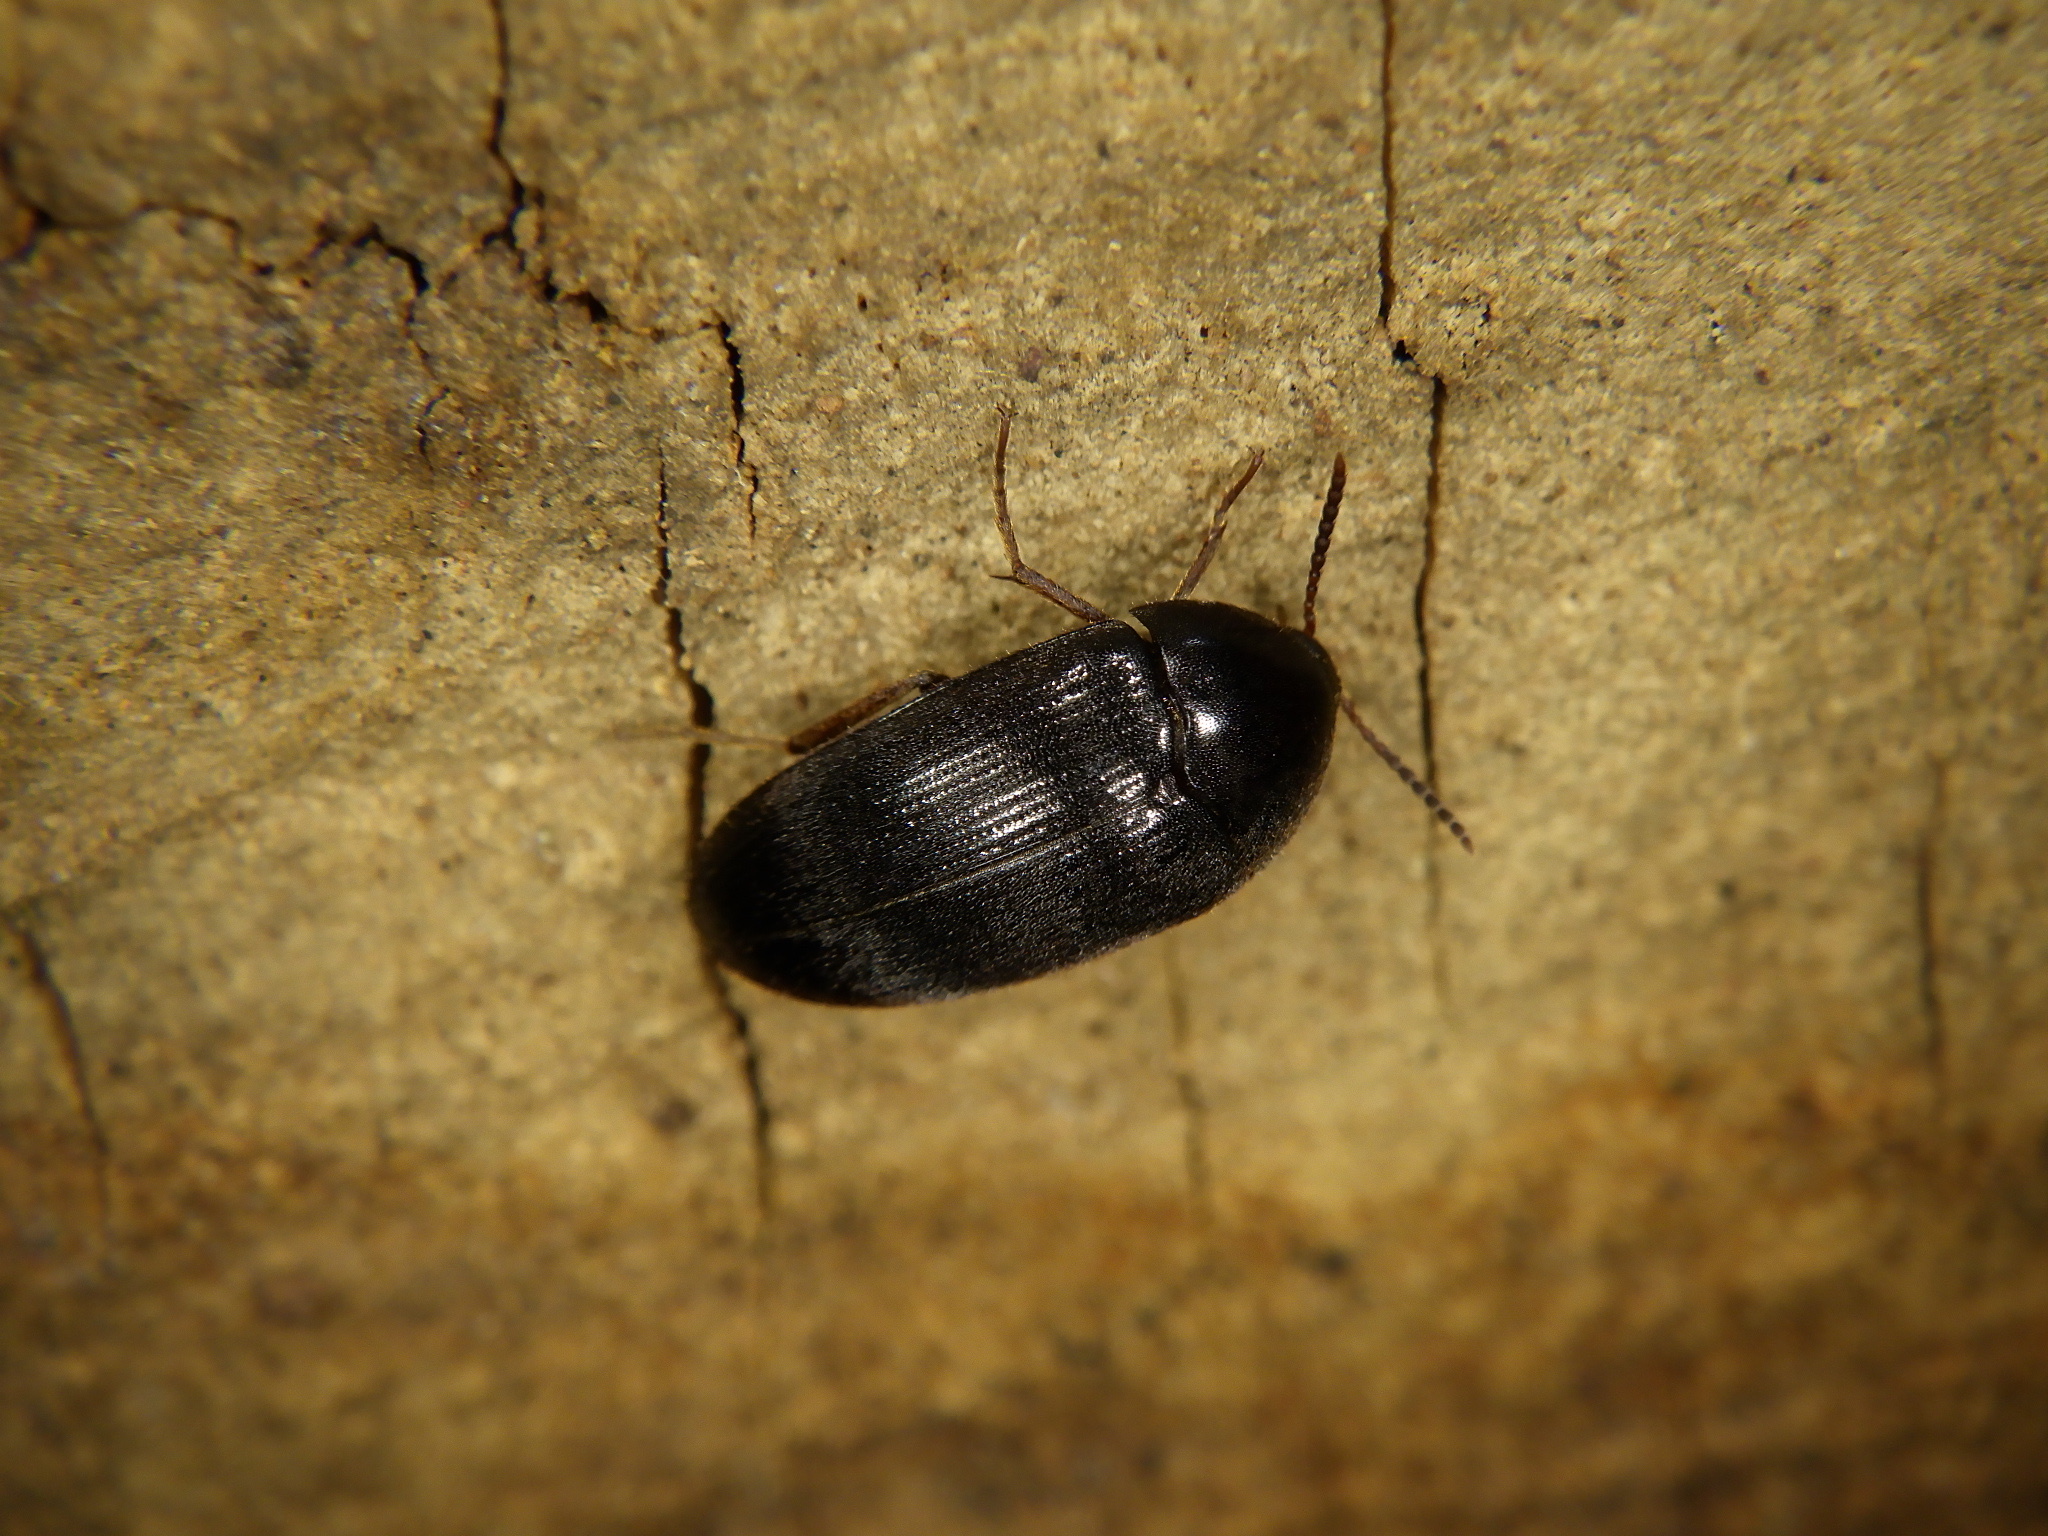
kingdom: Animalia
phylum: Arthropoda
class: Insecta
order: Coleoptera
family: Tetratomidae
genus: Synstrophus
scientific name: Synstrophus
